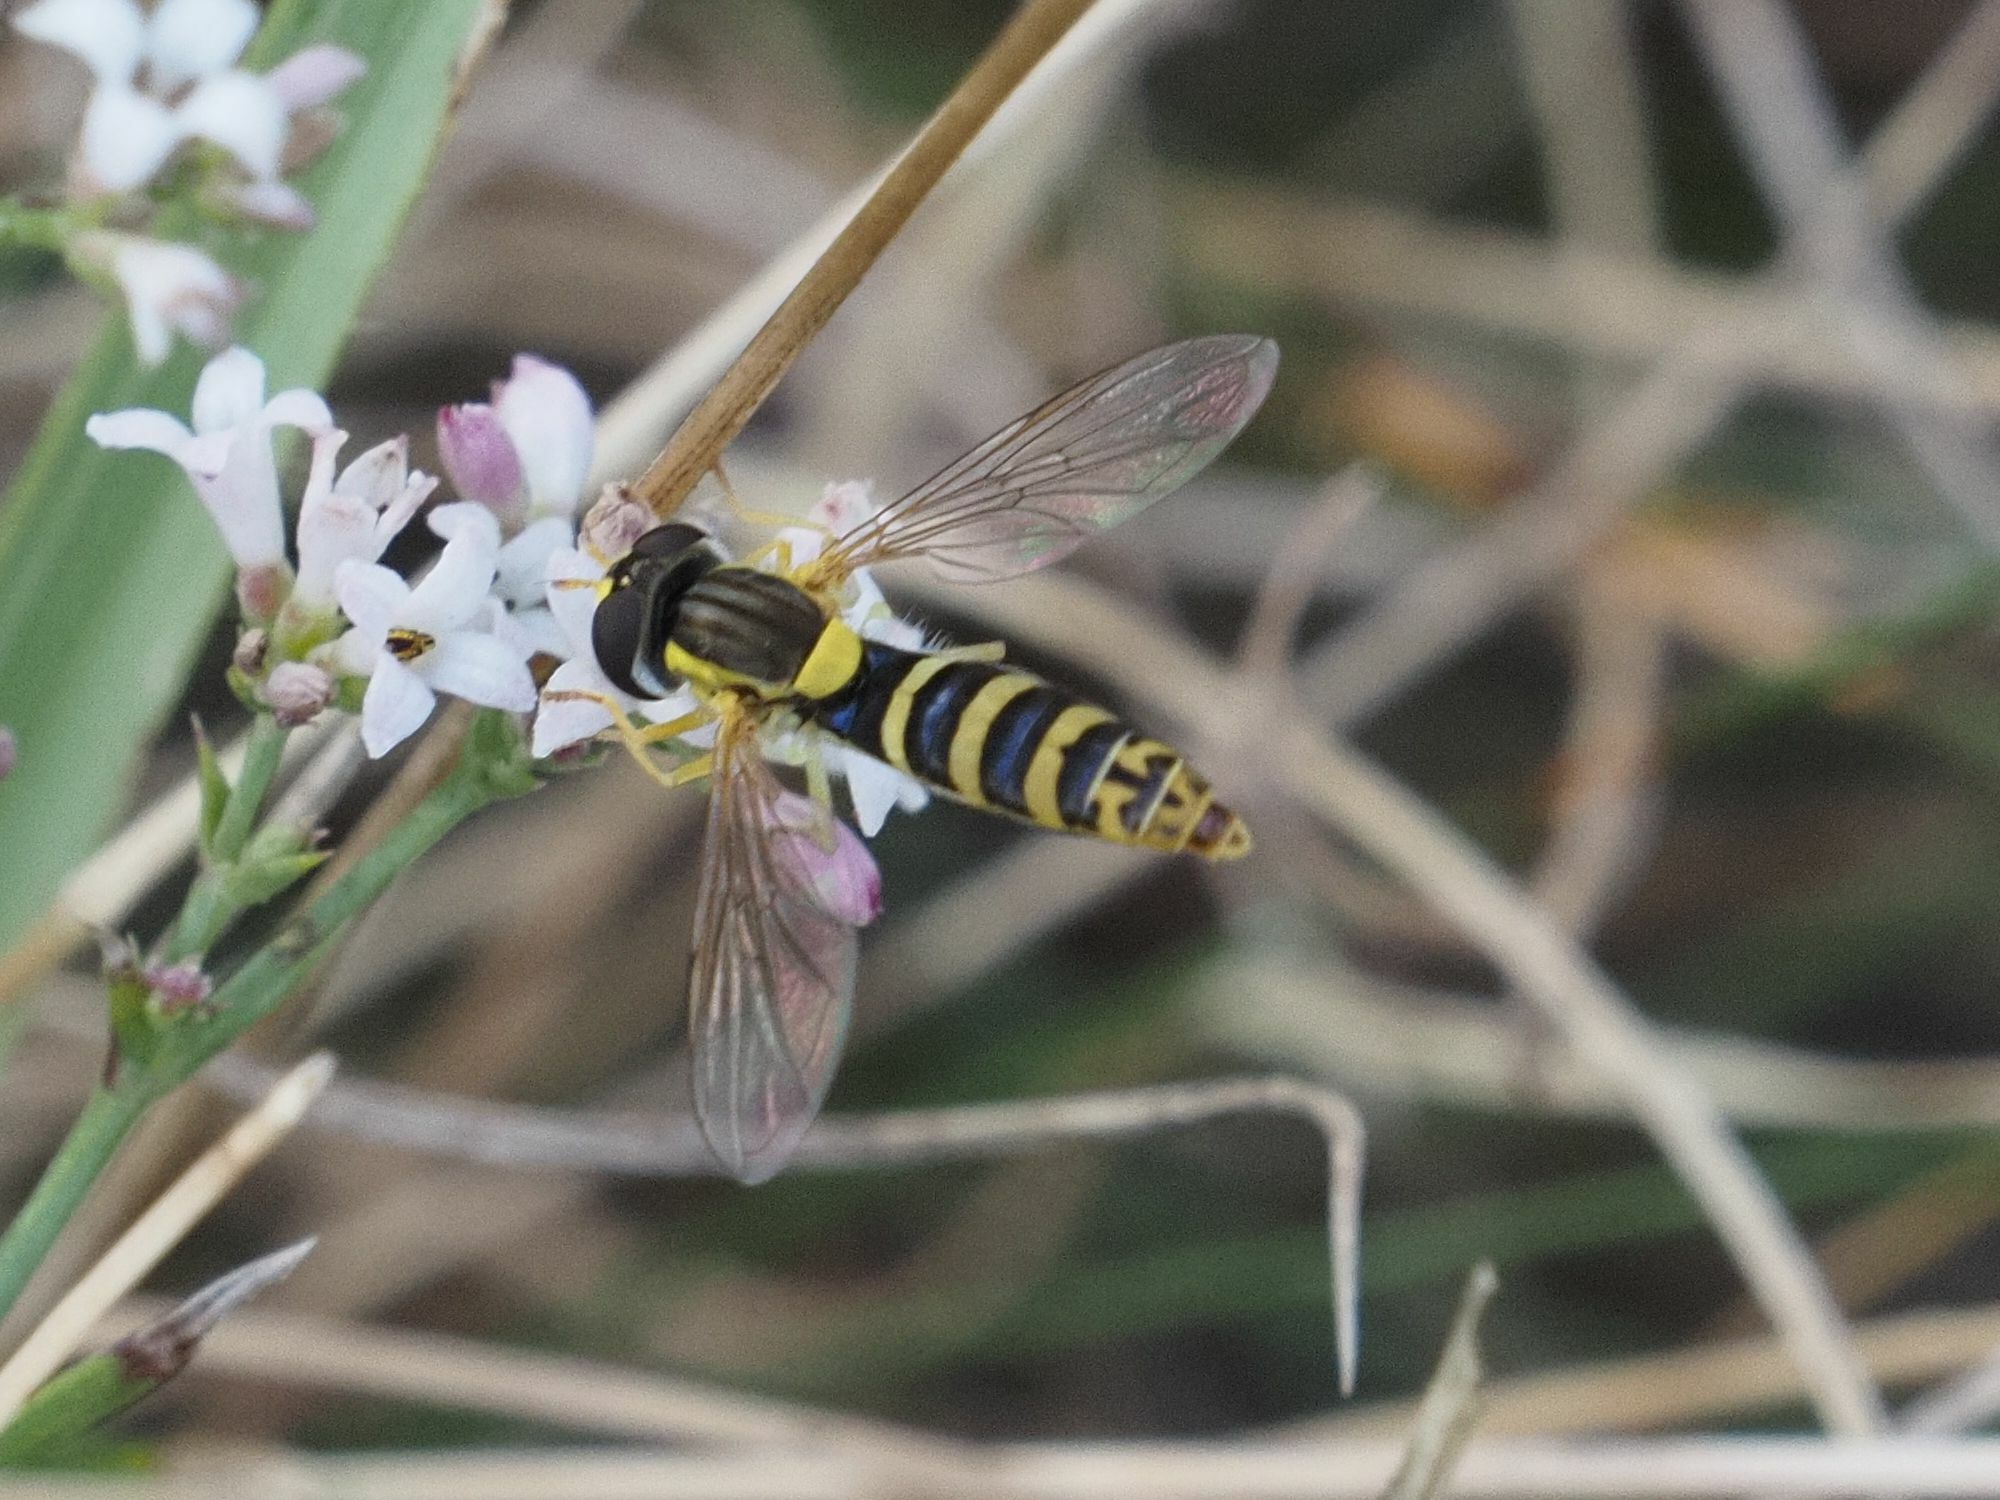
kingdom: Animalia
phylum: Arthropoda
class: Insecta
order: Diptera
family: Syrphidae
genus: Sphaerophoria
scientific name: Sphaerophoria
